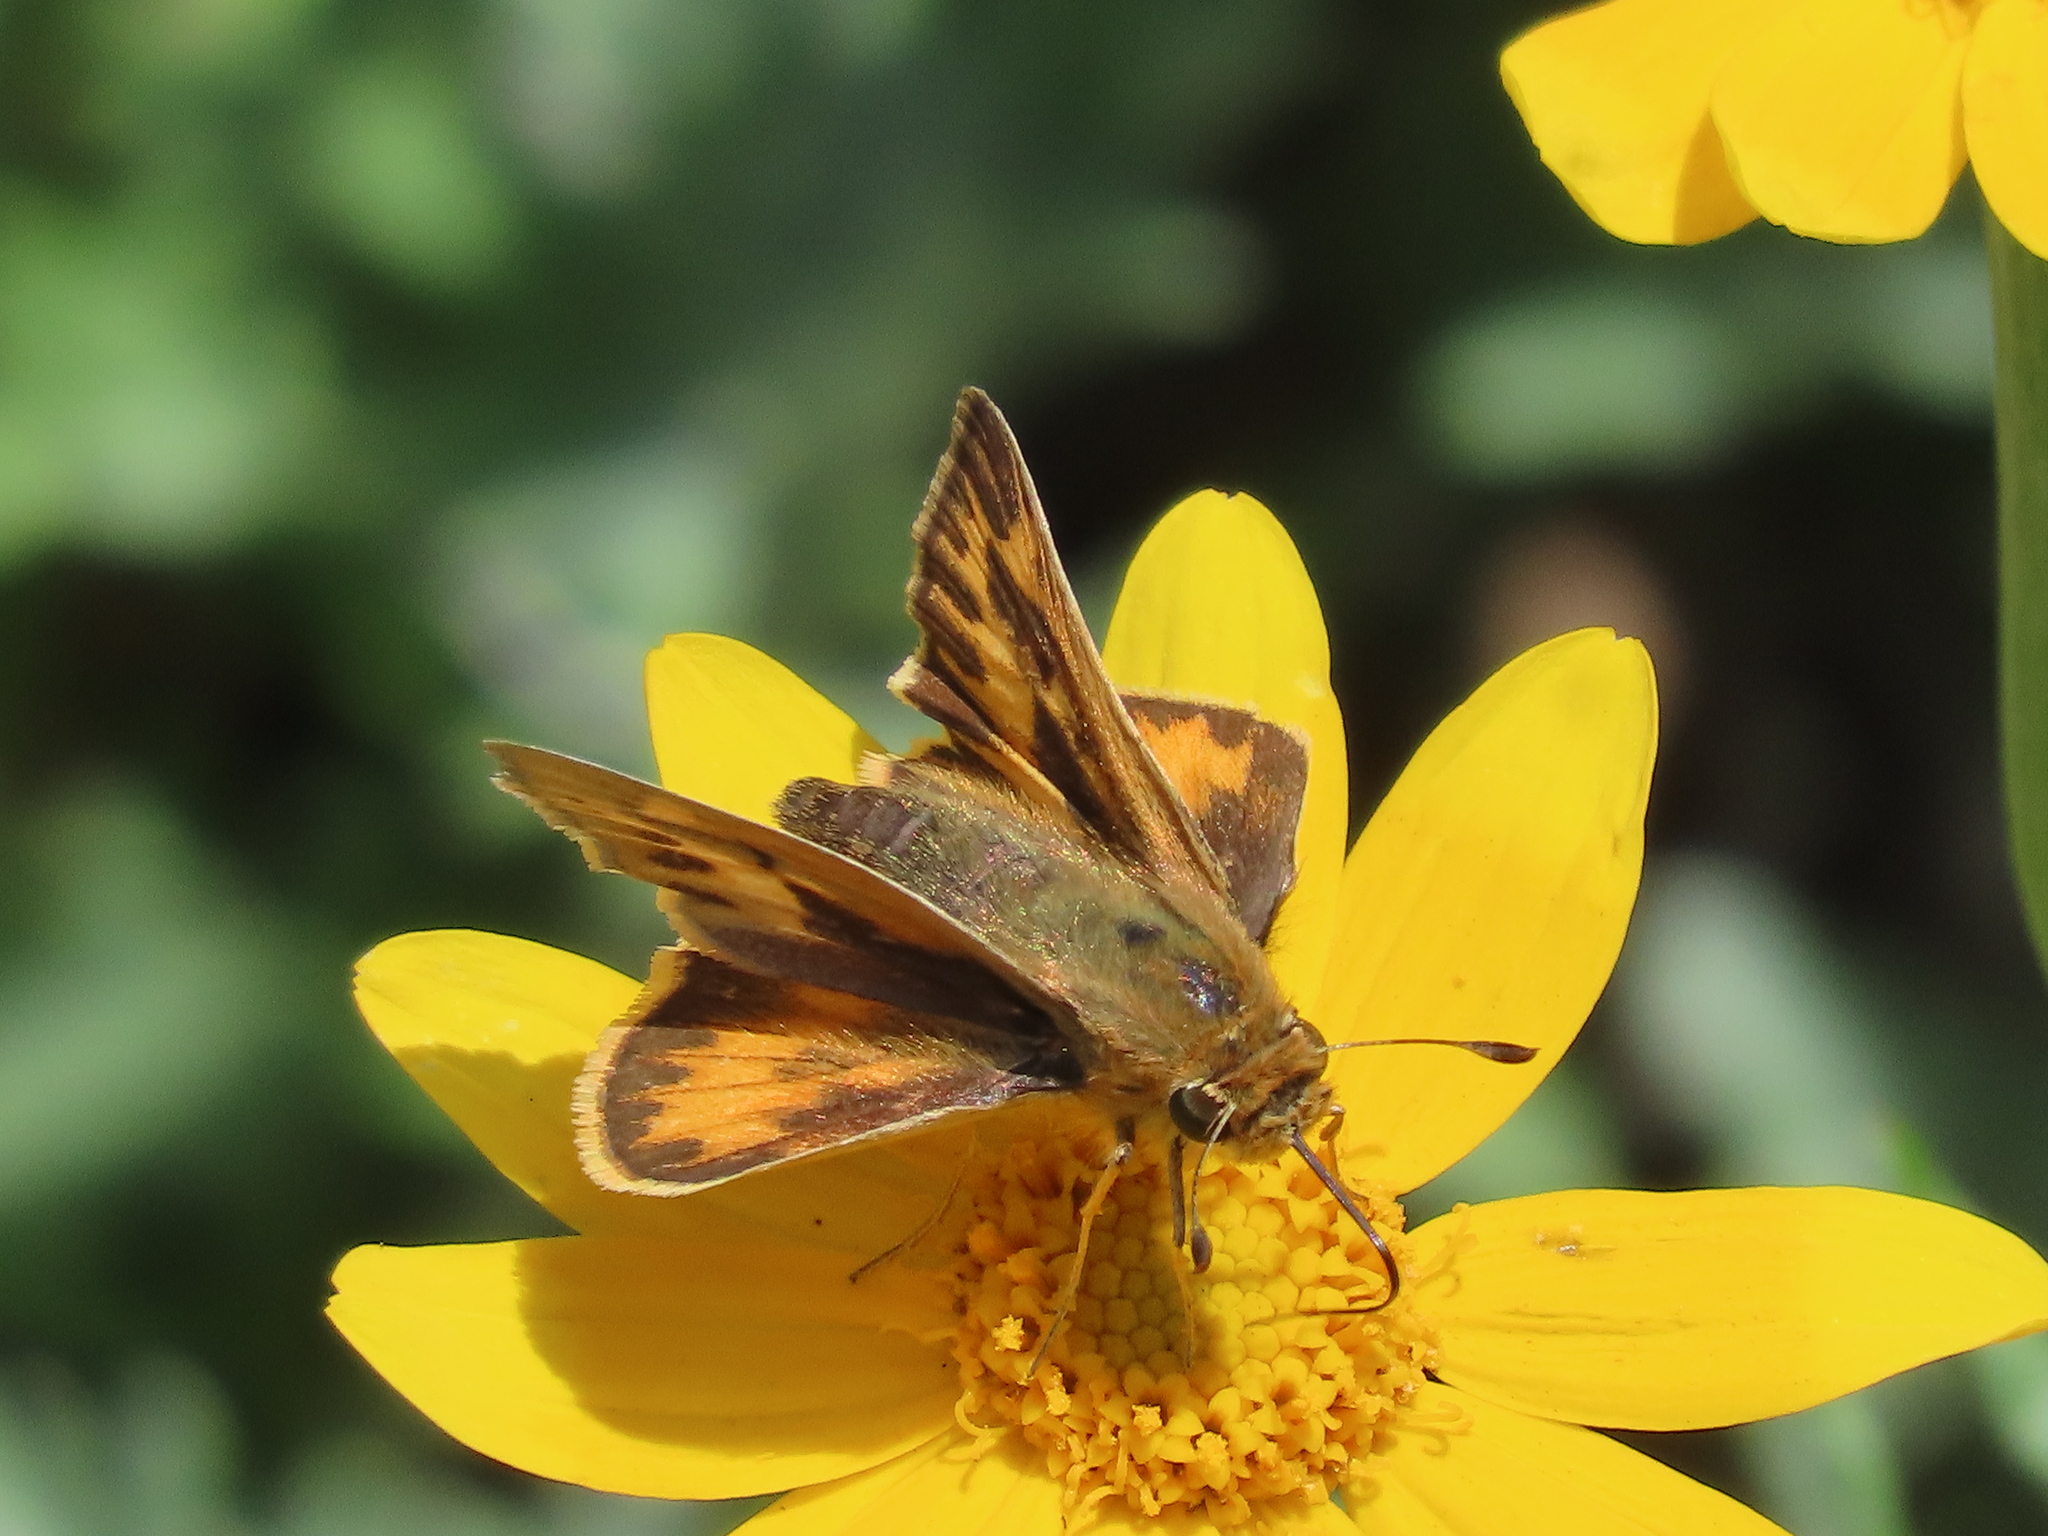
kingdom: Animalia
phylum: Arthropoda
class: Insecta
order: Lepidoptera
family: Hesperiidae
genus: Hylephila
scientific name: Hylephila phyleus
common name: Fiery skipper
